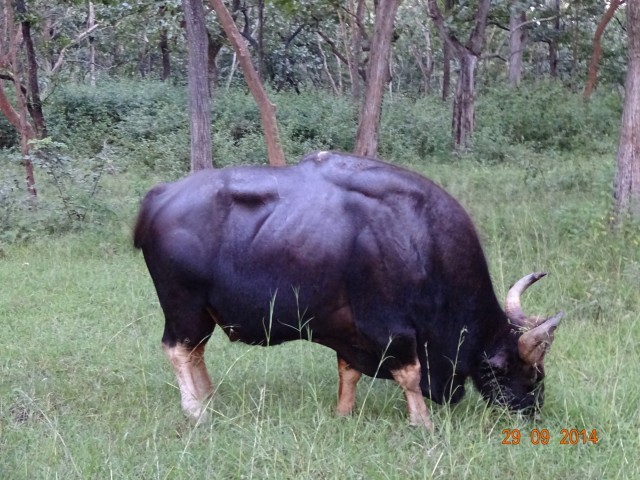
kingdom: Animalia
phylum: Chordata
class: Mammalia
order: Artiodactyla
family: Bovidae
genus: Bos
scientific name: Bos frontalis
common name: Gaur
